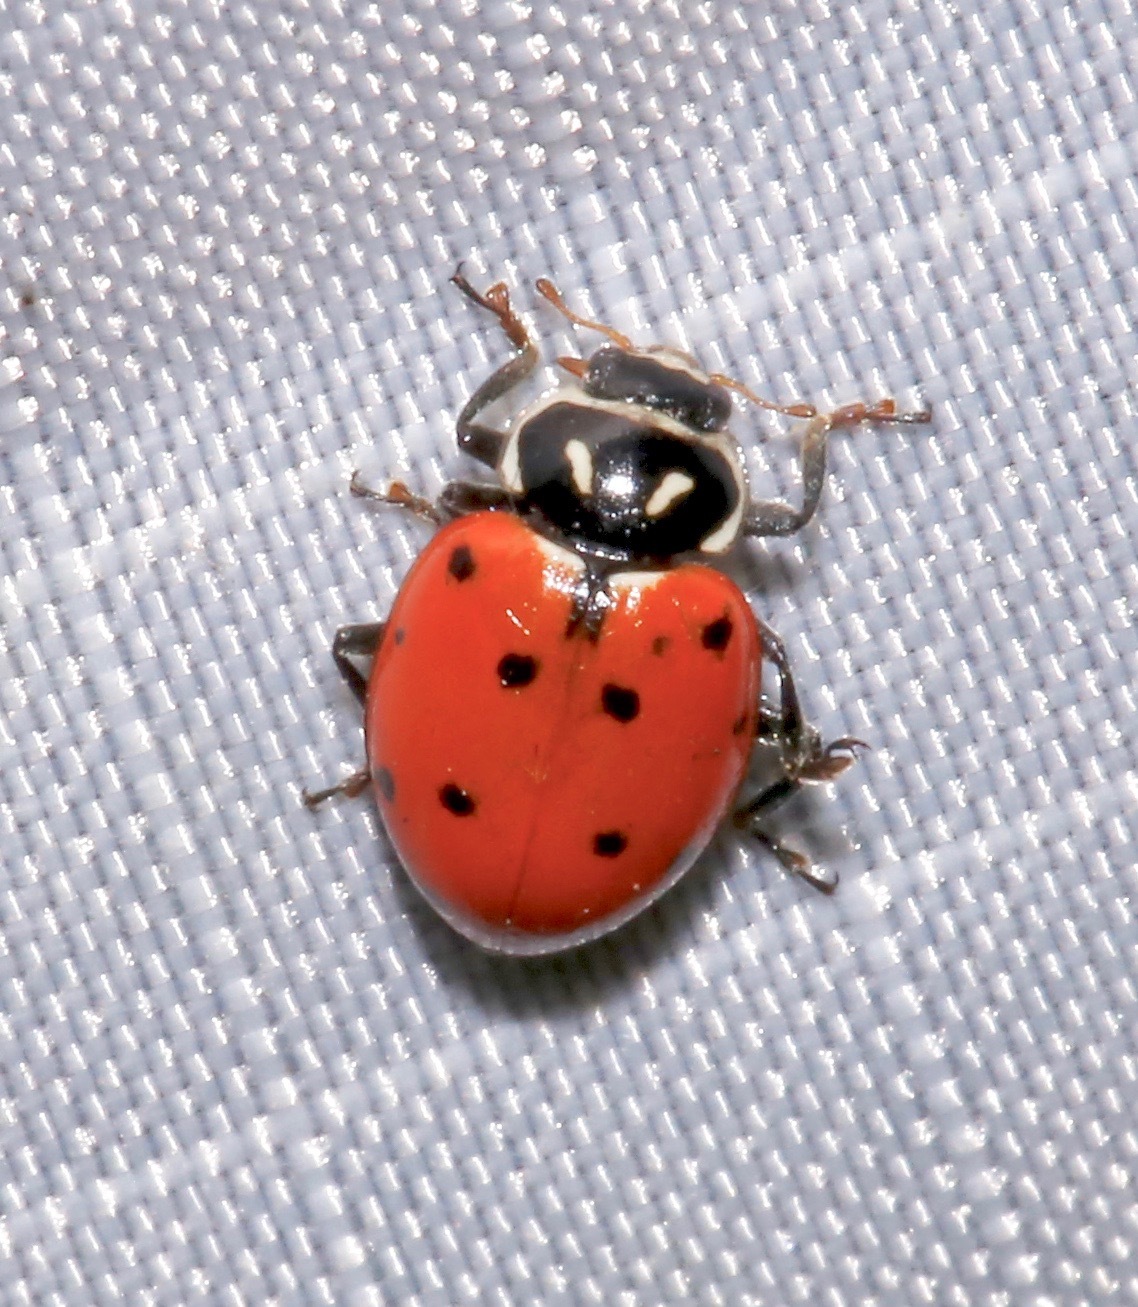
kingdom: Animalia
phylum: Arthropoda
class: Insecta
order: Coleoptera
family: Coccinellidae
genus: Hippodamia
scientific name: Hippodamia convergens
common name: Convergent lady beetle
